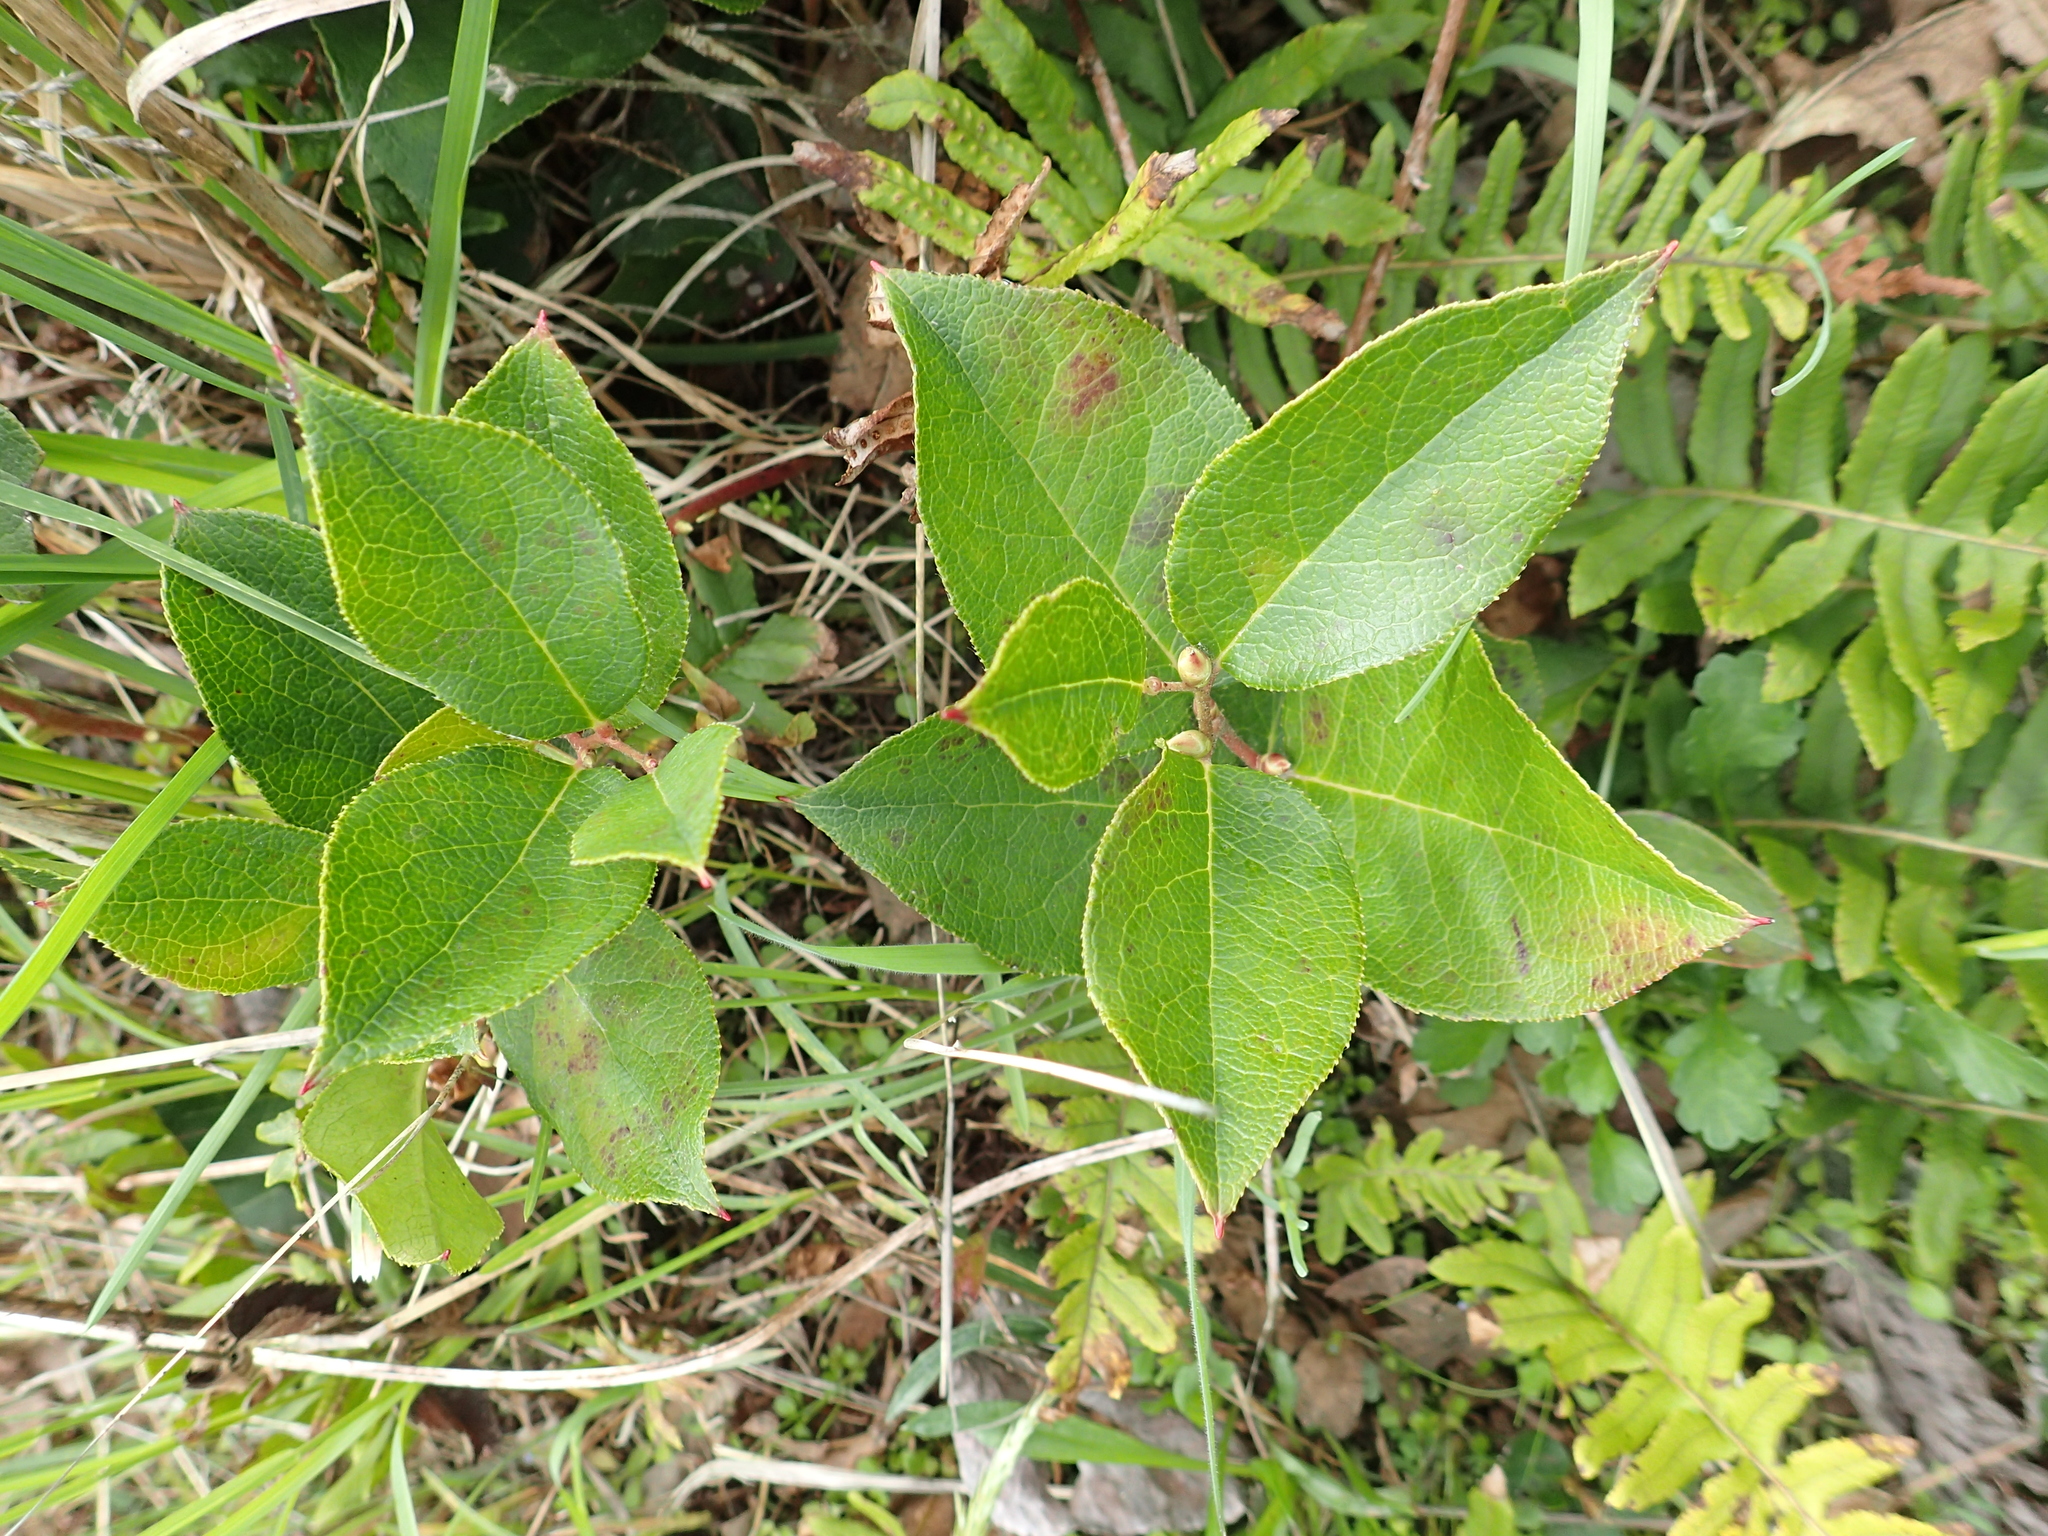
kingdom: Plantae
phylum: Tracheophyta
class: Magnoliopsida
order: Ericales
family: Ericaceae
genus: Gaultheria
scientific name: Gaultheria shallon
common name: Shallon
